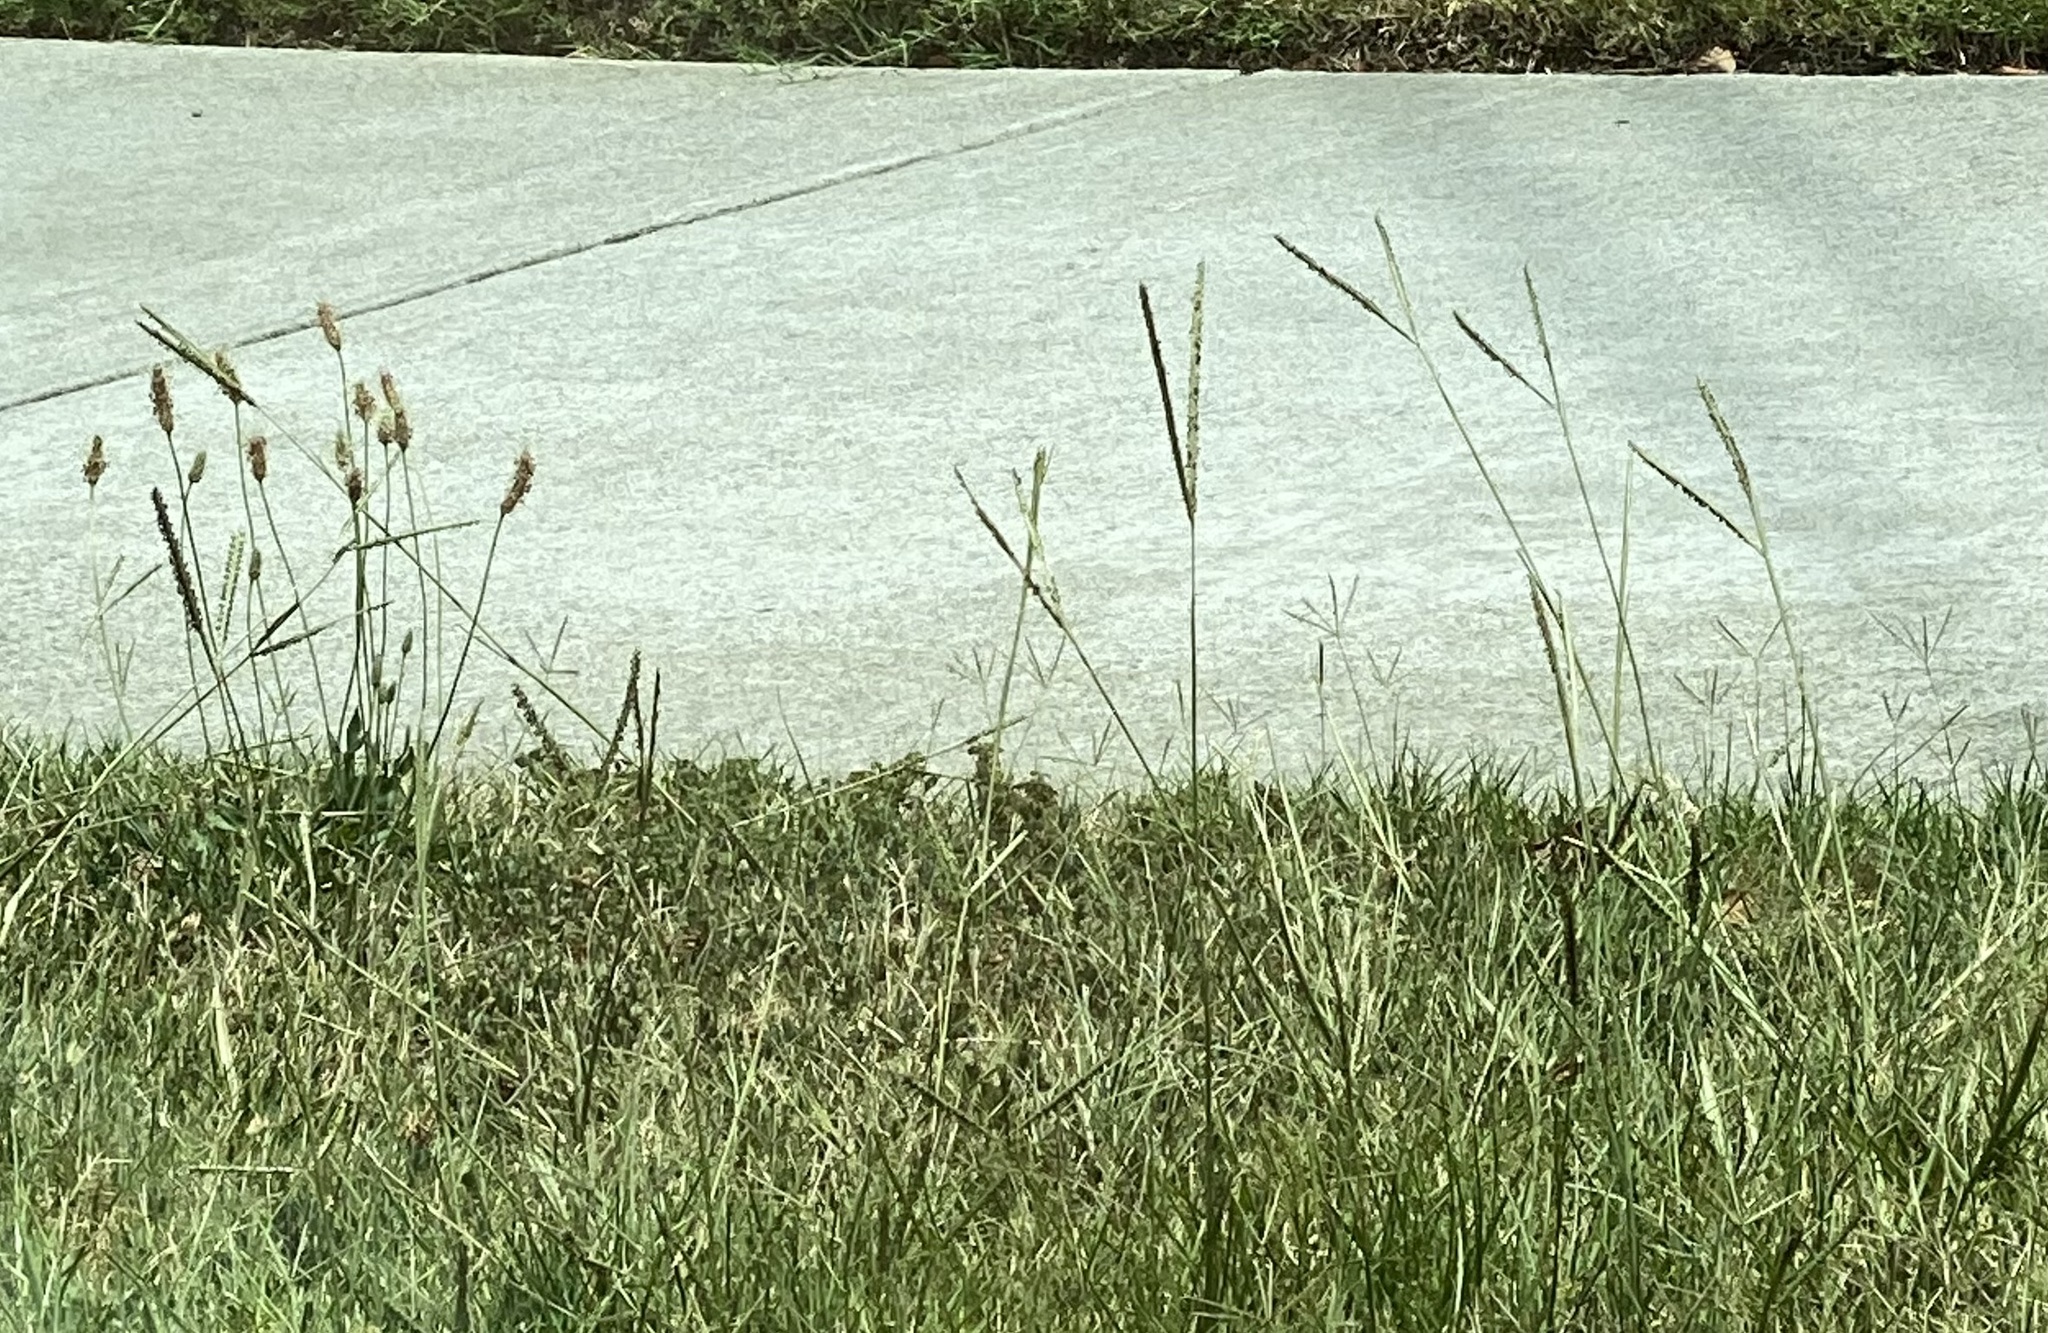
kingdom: Plantae
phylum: Tracheophyta
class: Magnoliopsida
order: Lamiales
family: Plantaginaceae
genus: Plantago
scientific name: Plantago lanceolata
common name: Ribwort plantain
